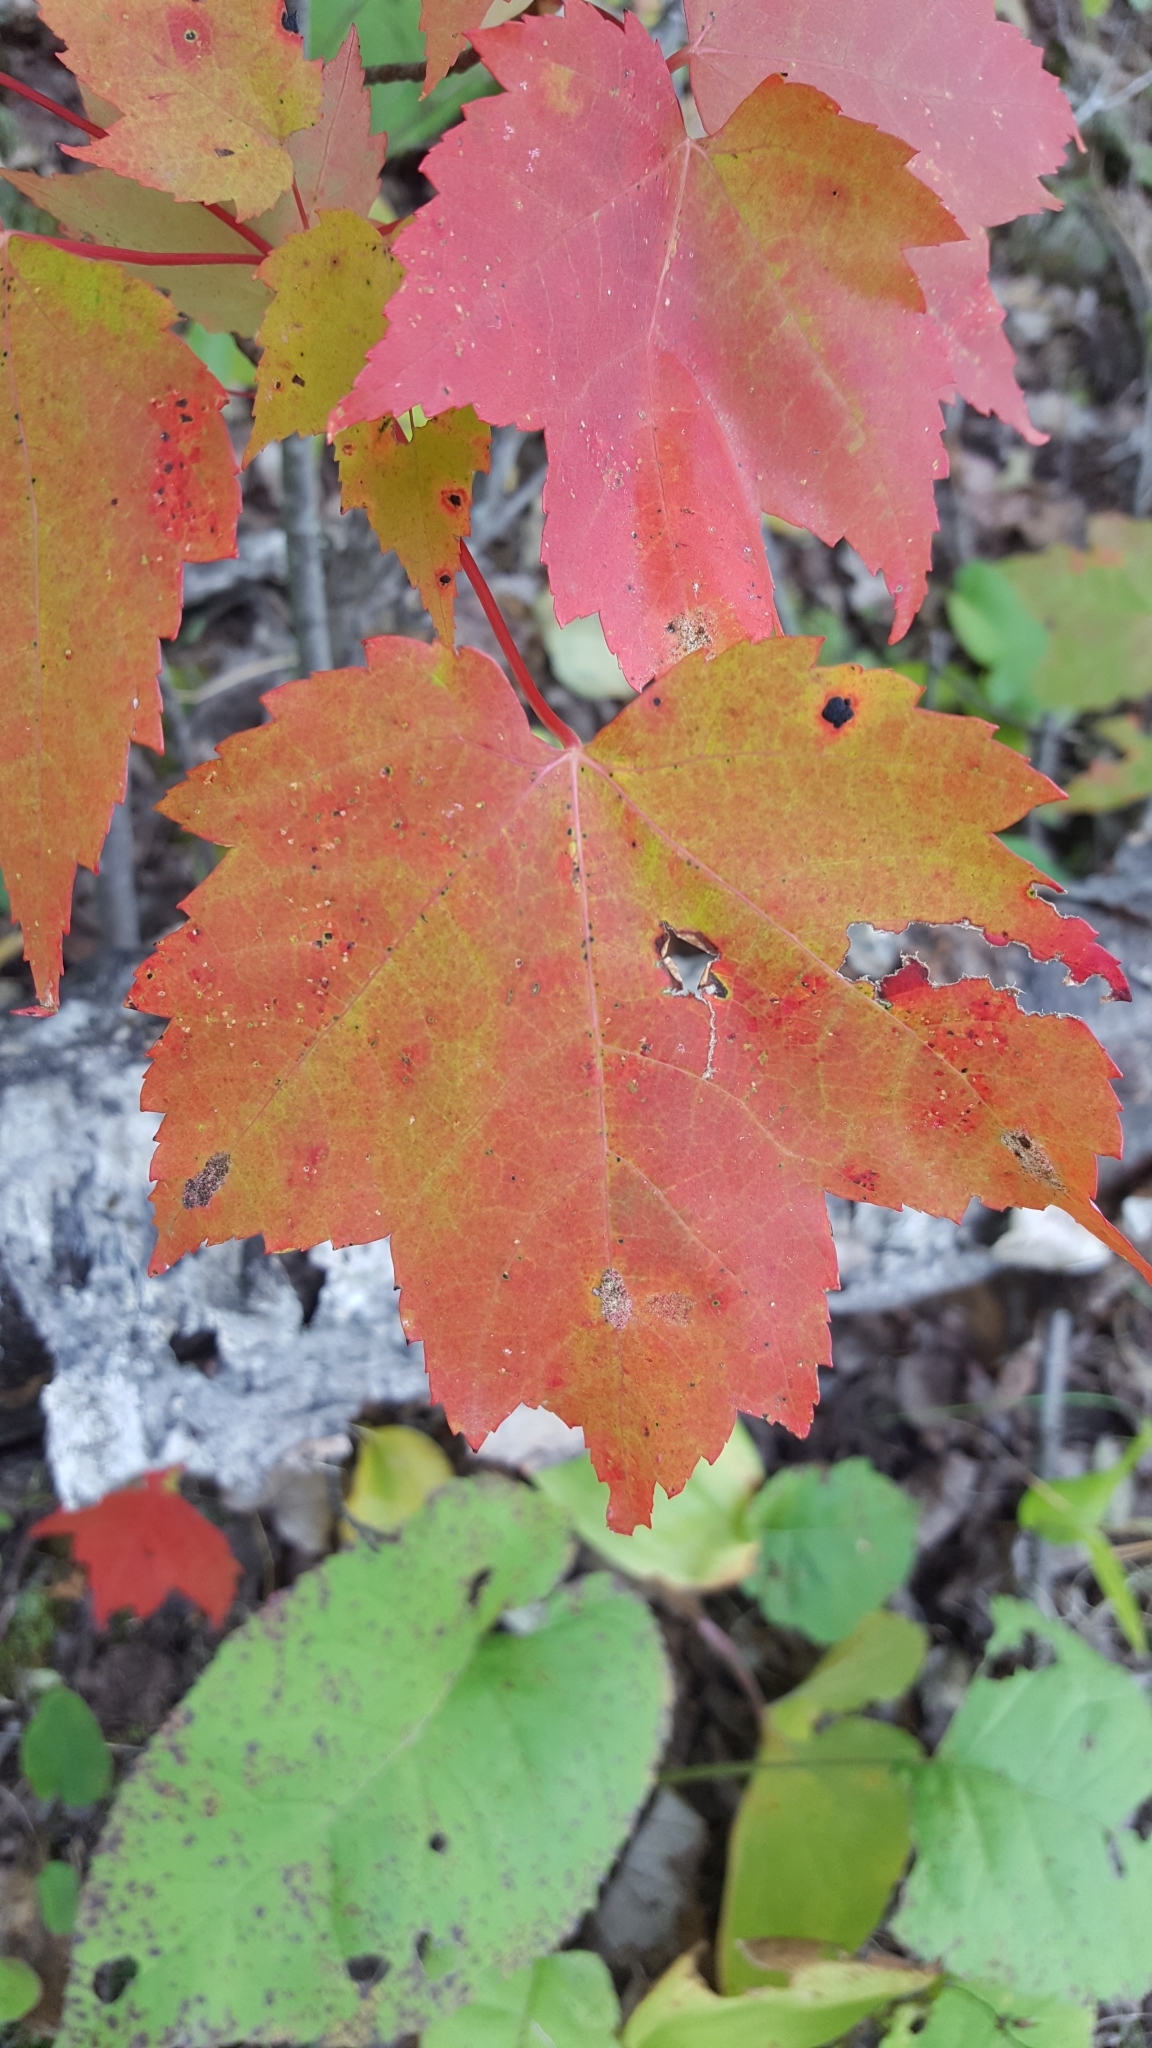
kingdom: Plantae
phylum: Tracheophyta
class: Magnoliopsida
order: Sapindales
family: Sapindaceae
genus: Acer
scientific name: Acer rubrum
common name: Red maple
